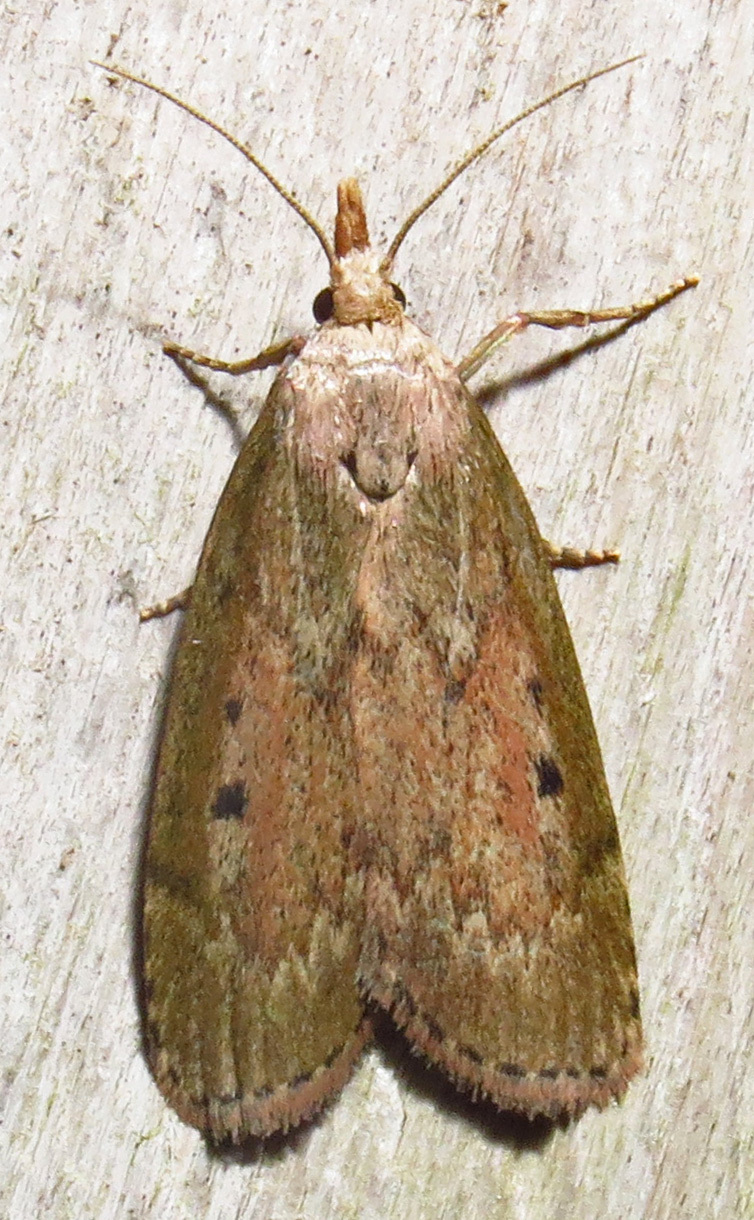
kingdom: Animalia
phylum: Arthropoda
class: Insecta
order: Lepidoptera
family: Pyralidae
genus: Aphomia
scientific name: Aphomia sociella
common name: Bee moth
